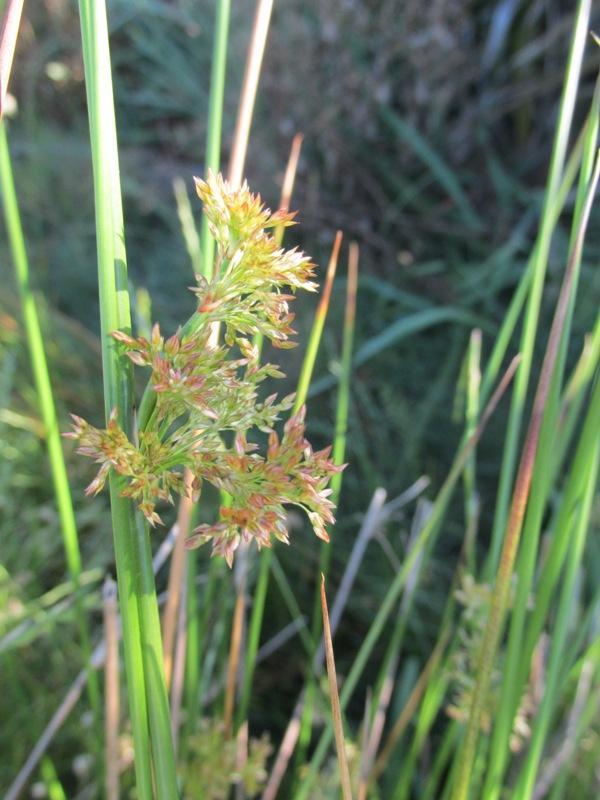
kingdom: Plantae
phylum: Tracheophyta
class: Liliopsida
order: Poales
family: Juncaceae
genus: Juncus
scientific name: Juncus effusus
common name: Soft rush
